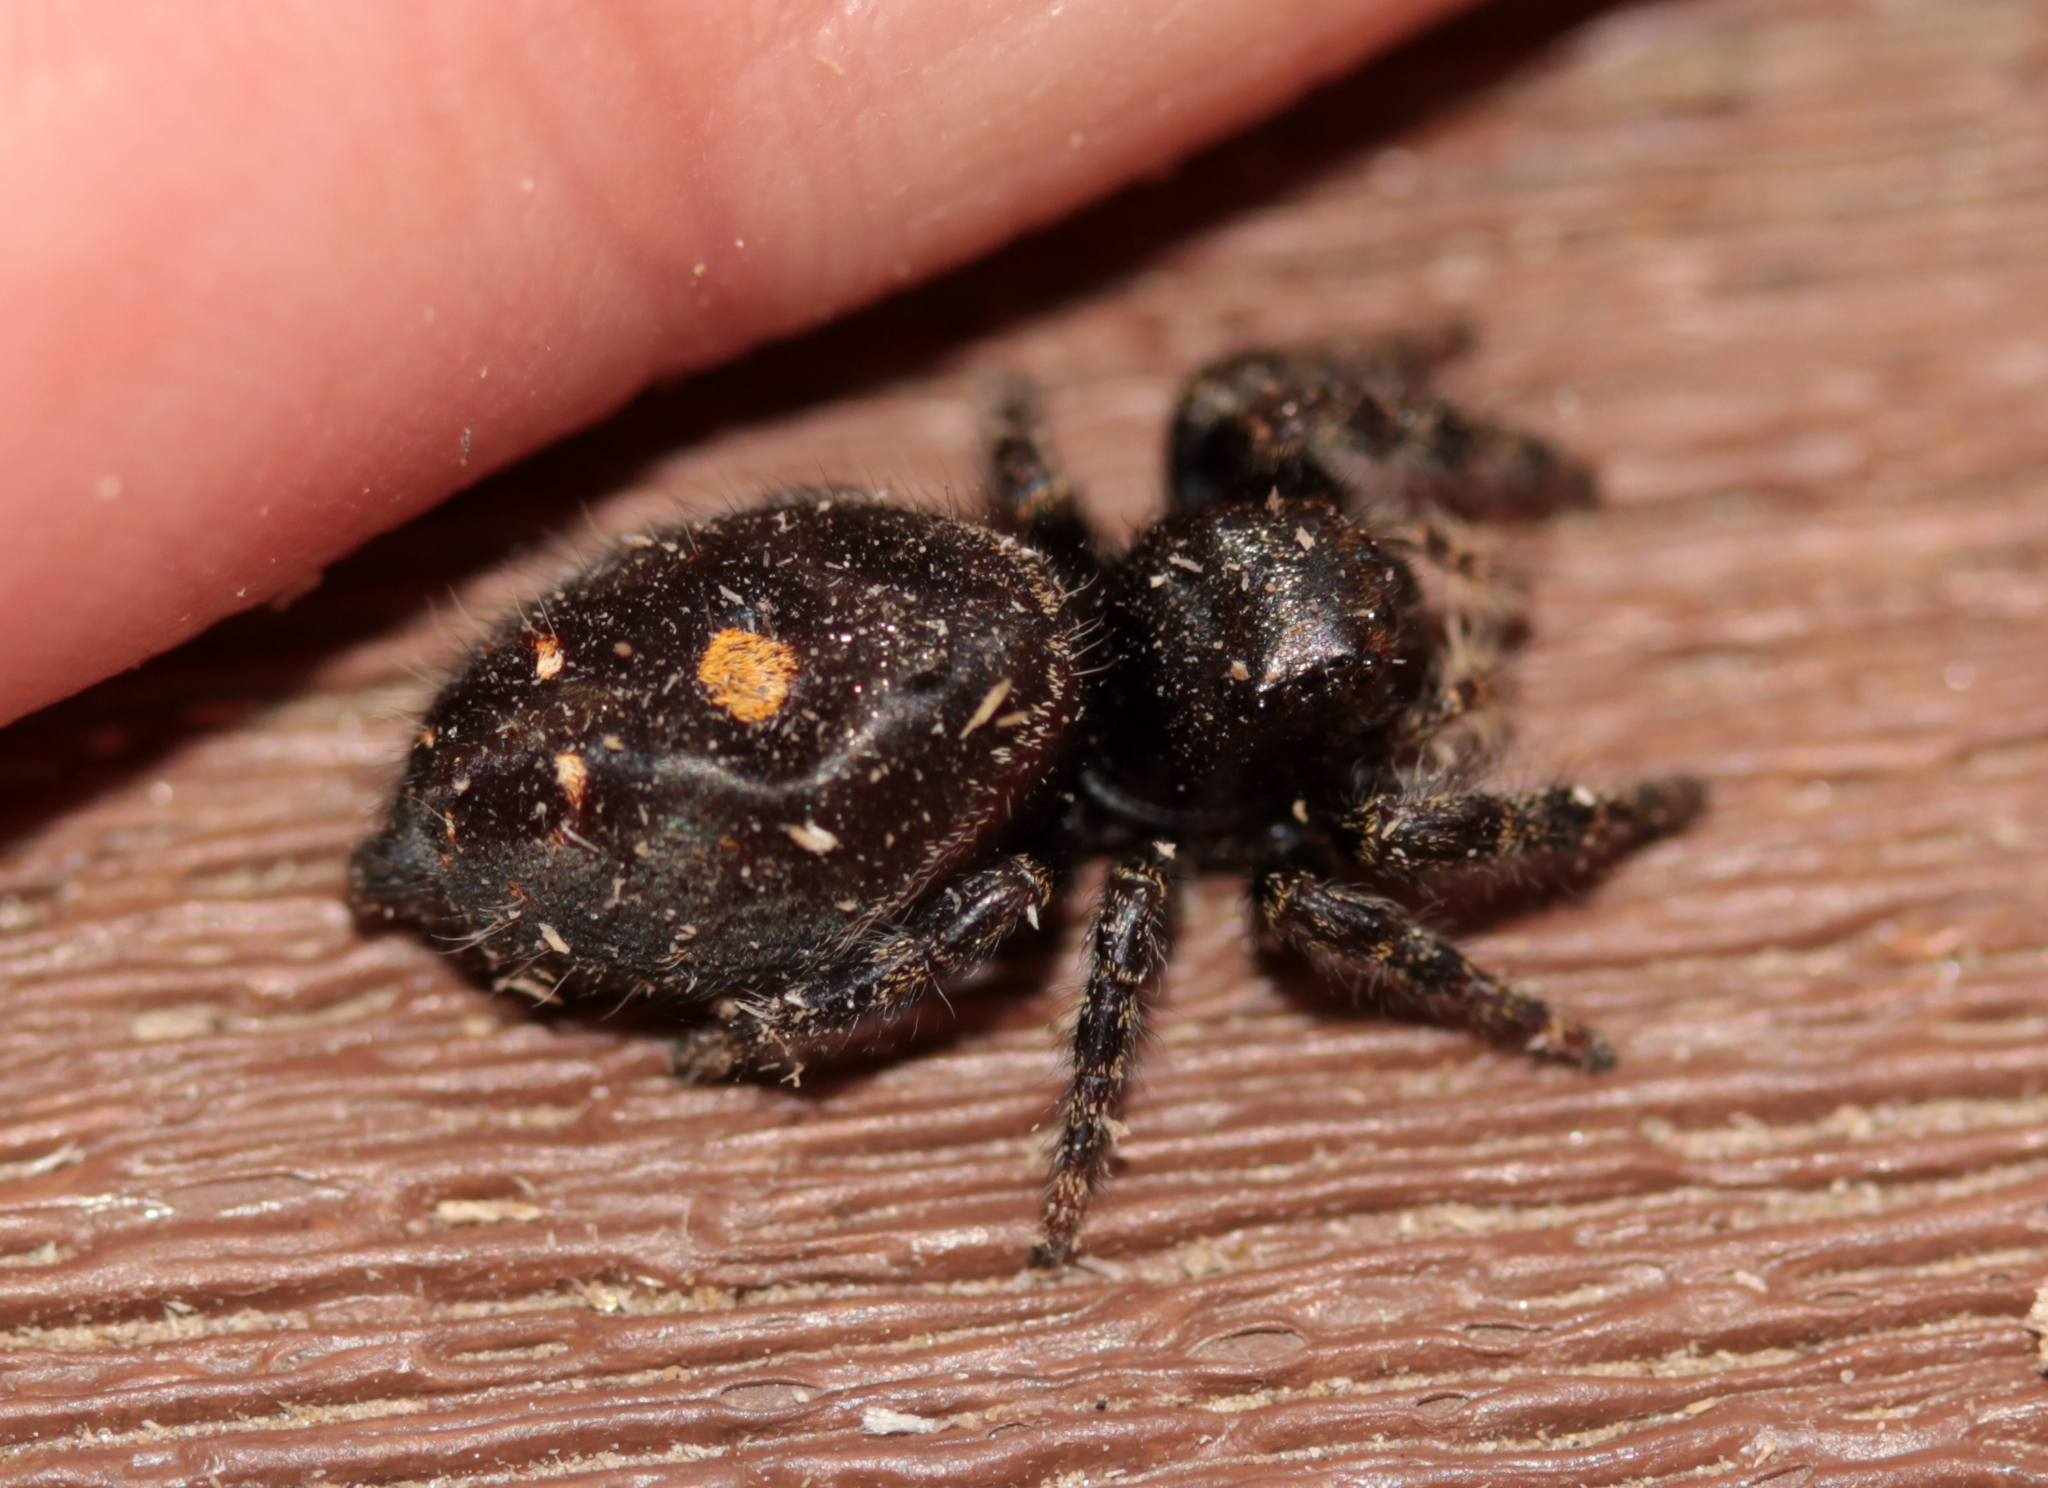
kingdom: Animalia
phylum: Arthropoda
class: Arachnida
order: Araneae
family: Salticidae
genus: Phidippus
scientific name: Phidippus audax
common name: Bold jumper
